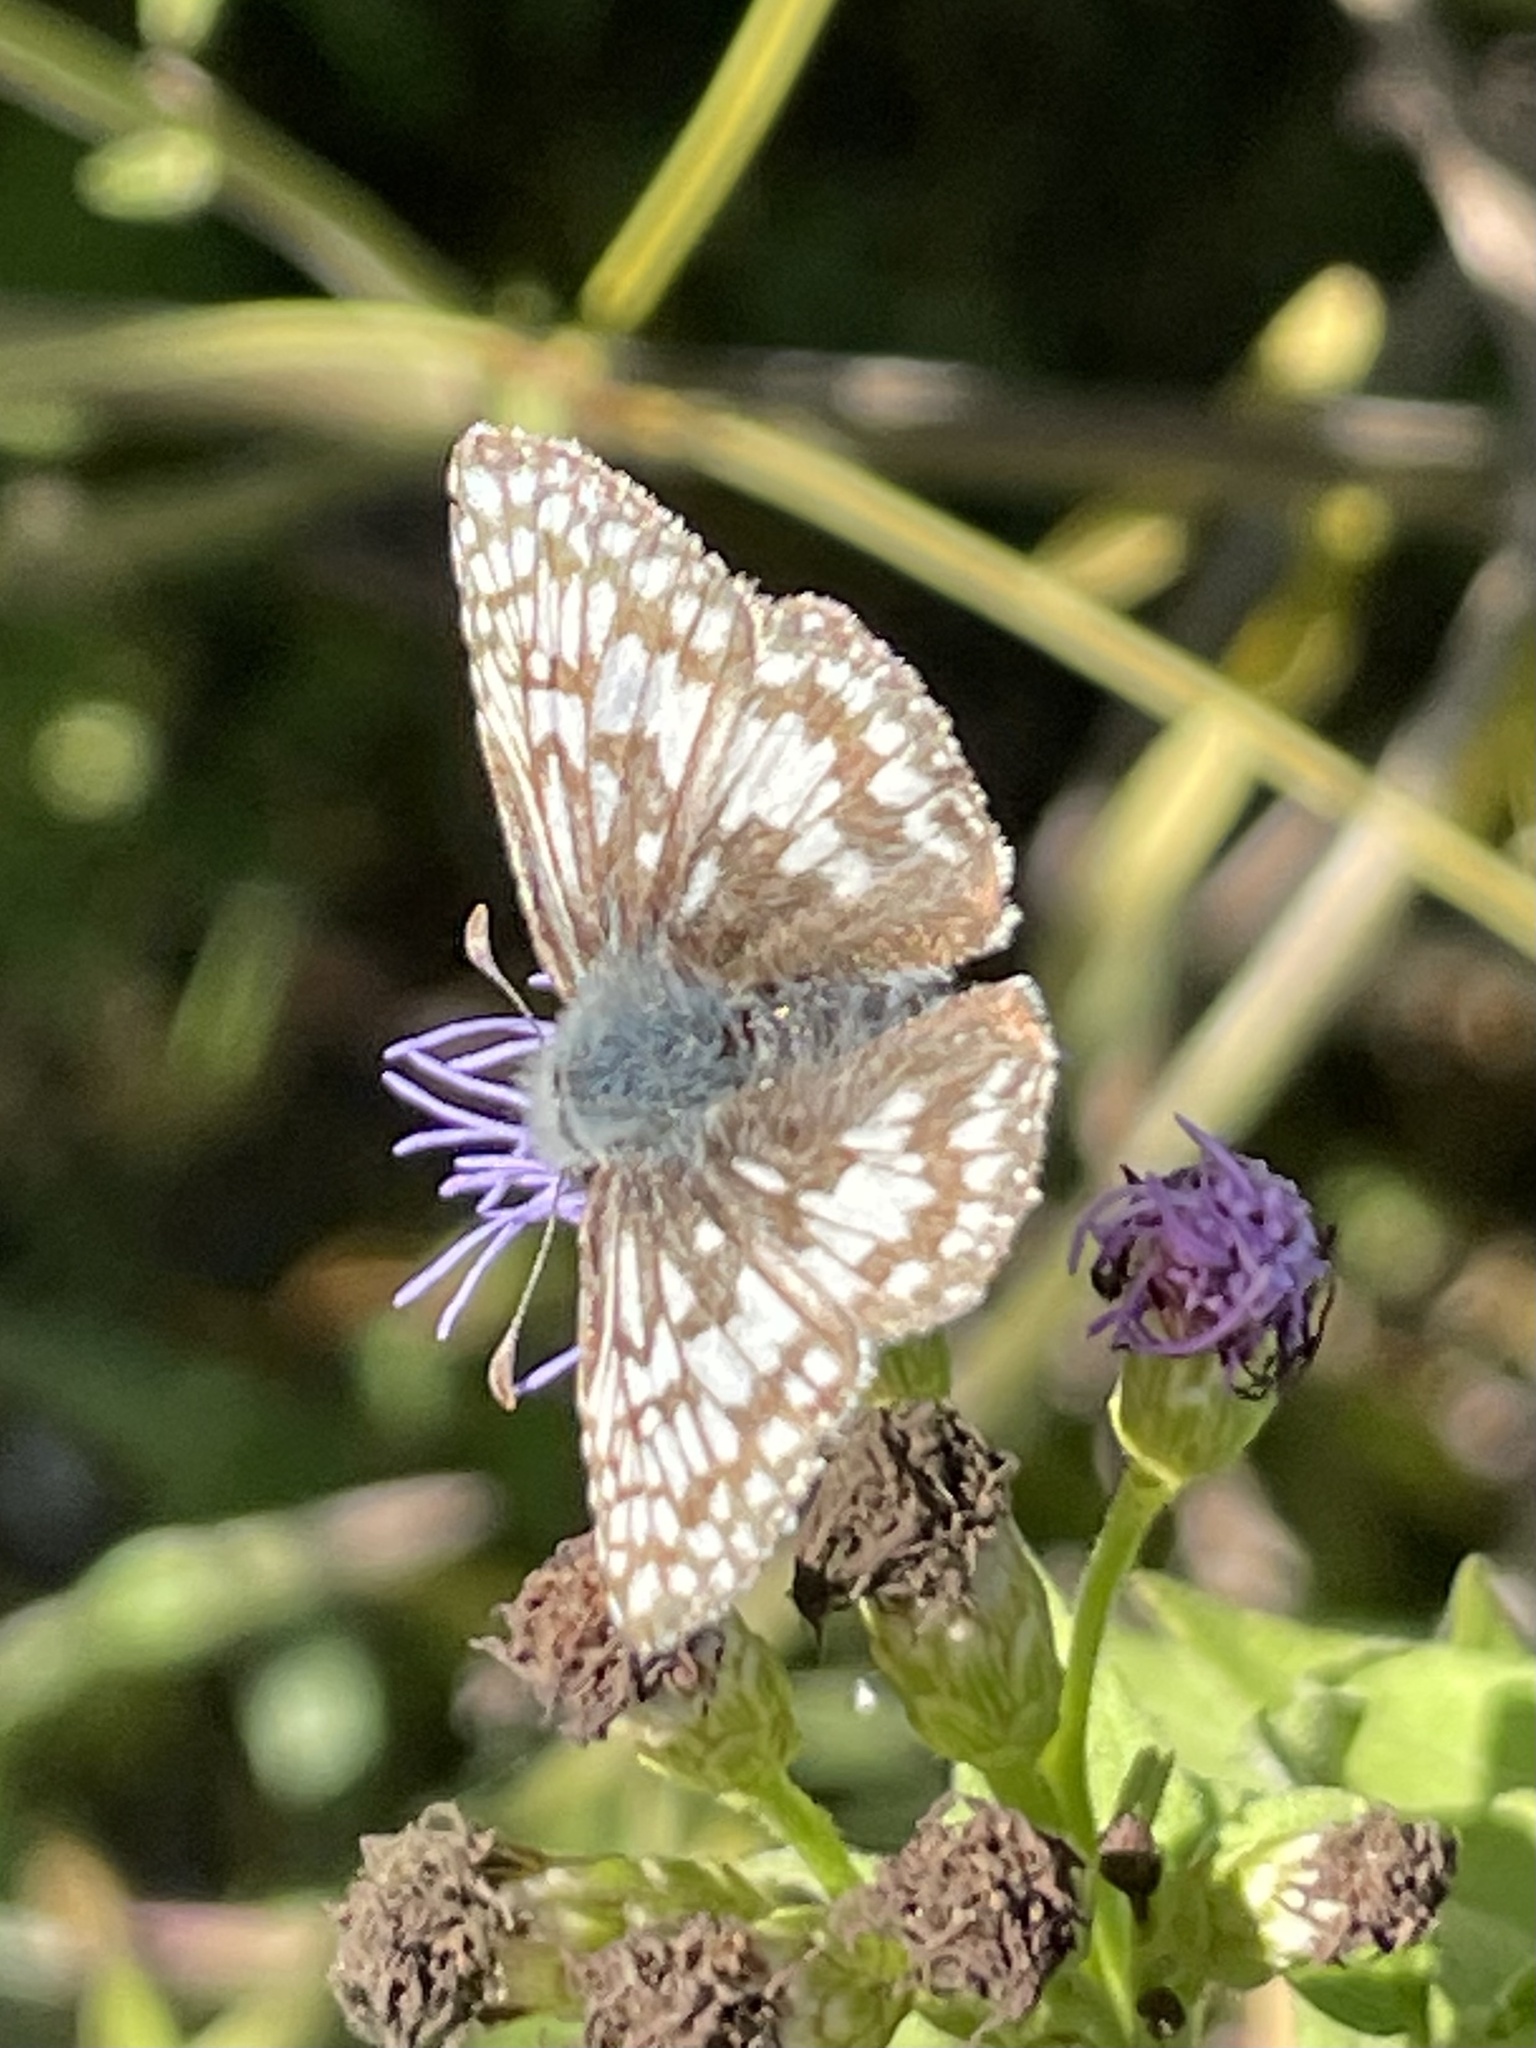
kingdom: Animalia
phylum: Arthropoda
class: Insecta
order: Lepidoptera
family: Hesperiidae
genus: Burnsius
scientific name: Burnsius
